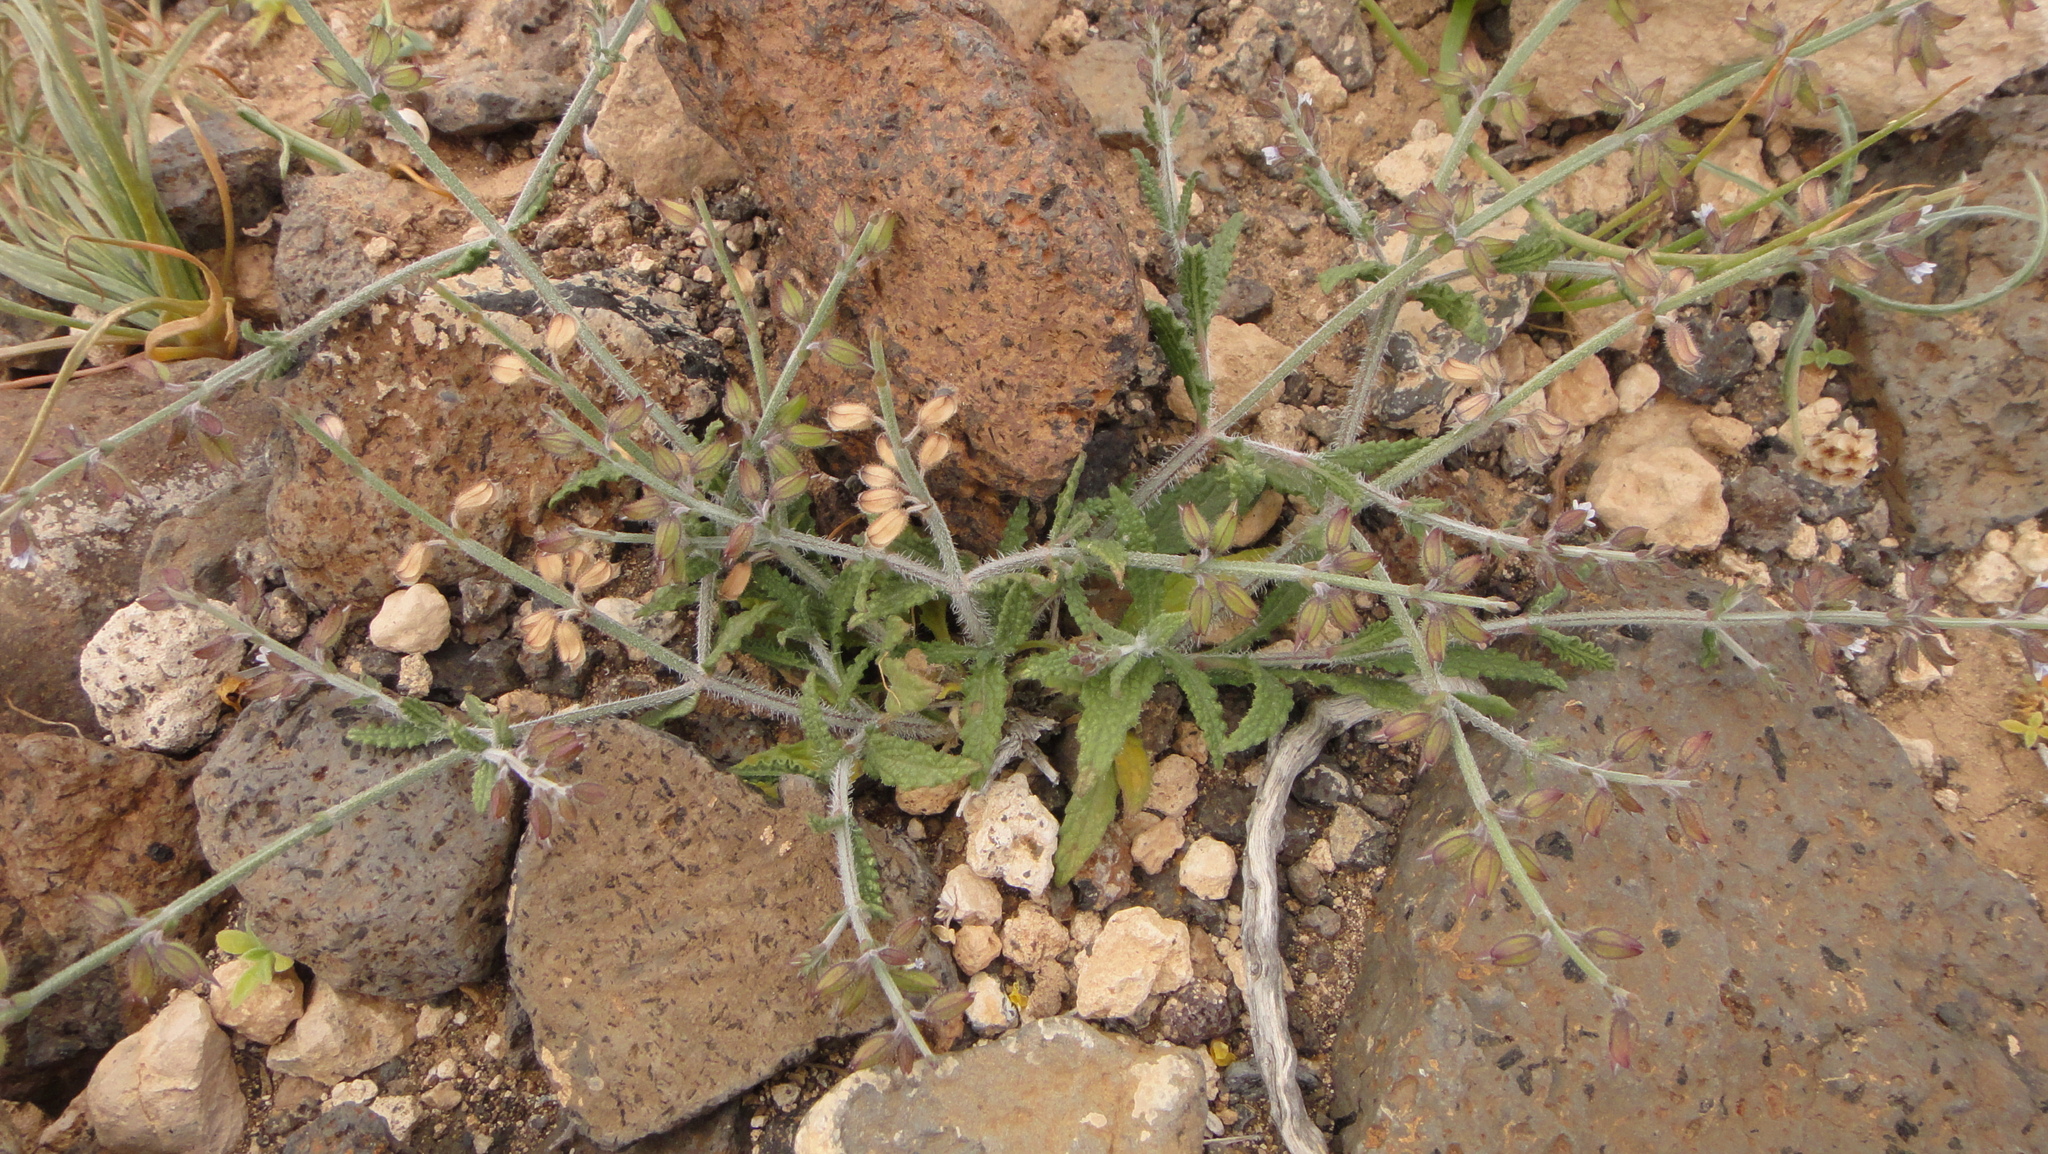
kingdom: Plantae
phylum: Tracheophyta
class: Magnoliopsida
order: Lamiales
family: Lamiaceae
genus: Salvia
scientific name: Salvia aegyptiaca
